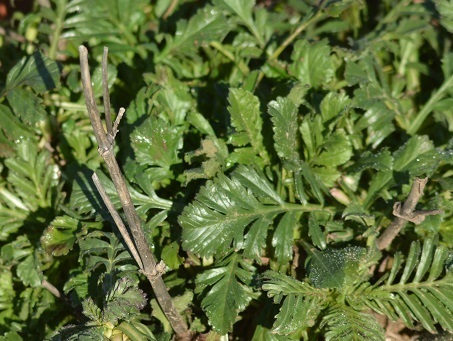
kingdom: Plantae
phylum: Tracheophyta
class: Magnoliopsida
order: Dipsacales
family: Caprifoliaceae
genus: Sixalix
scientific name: Sixalix maritima
